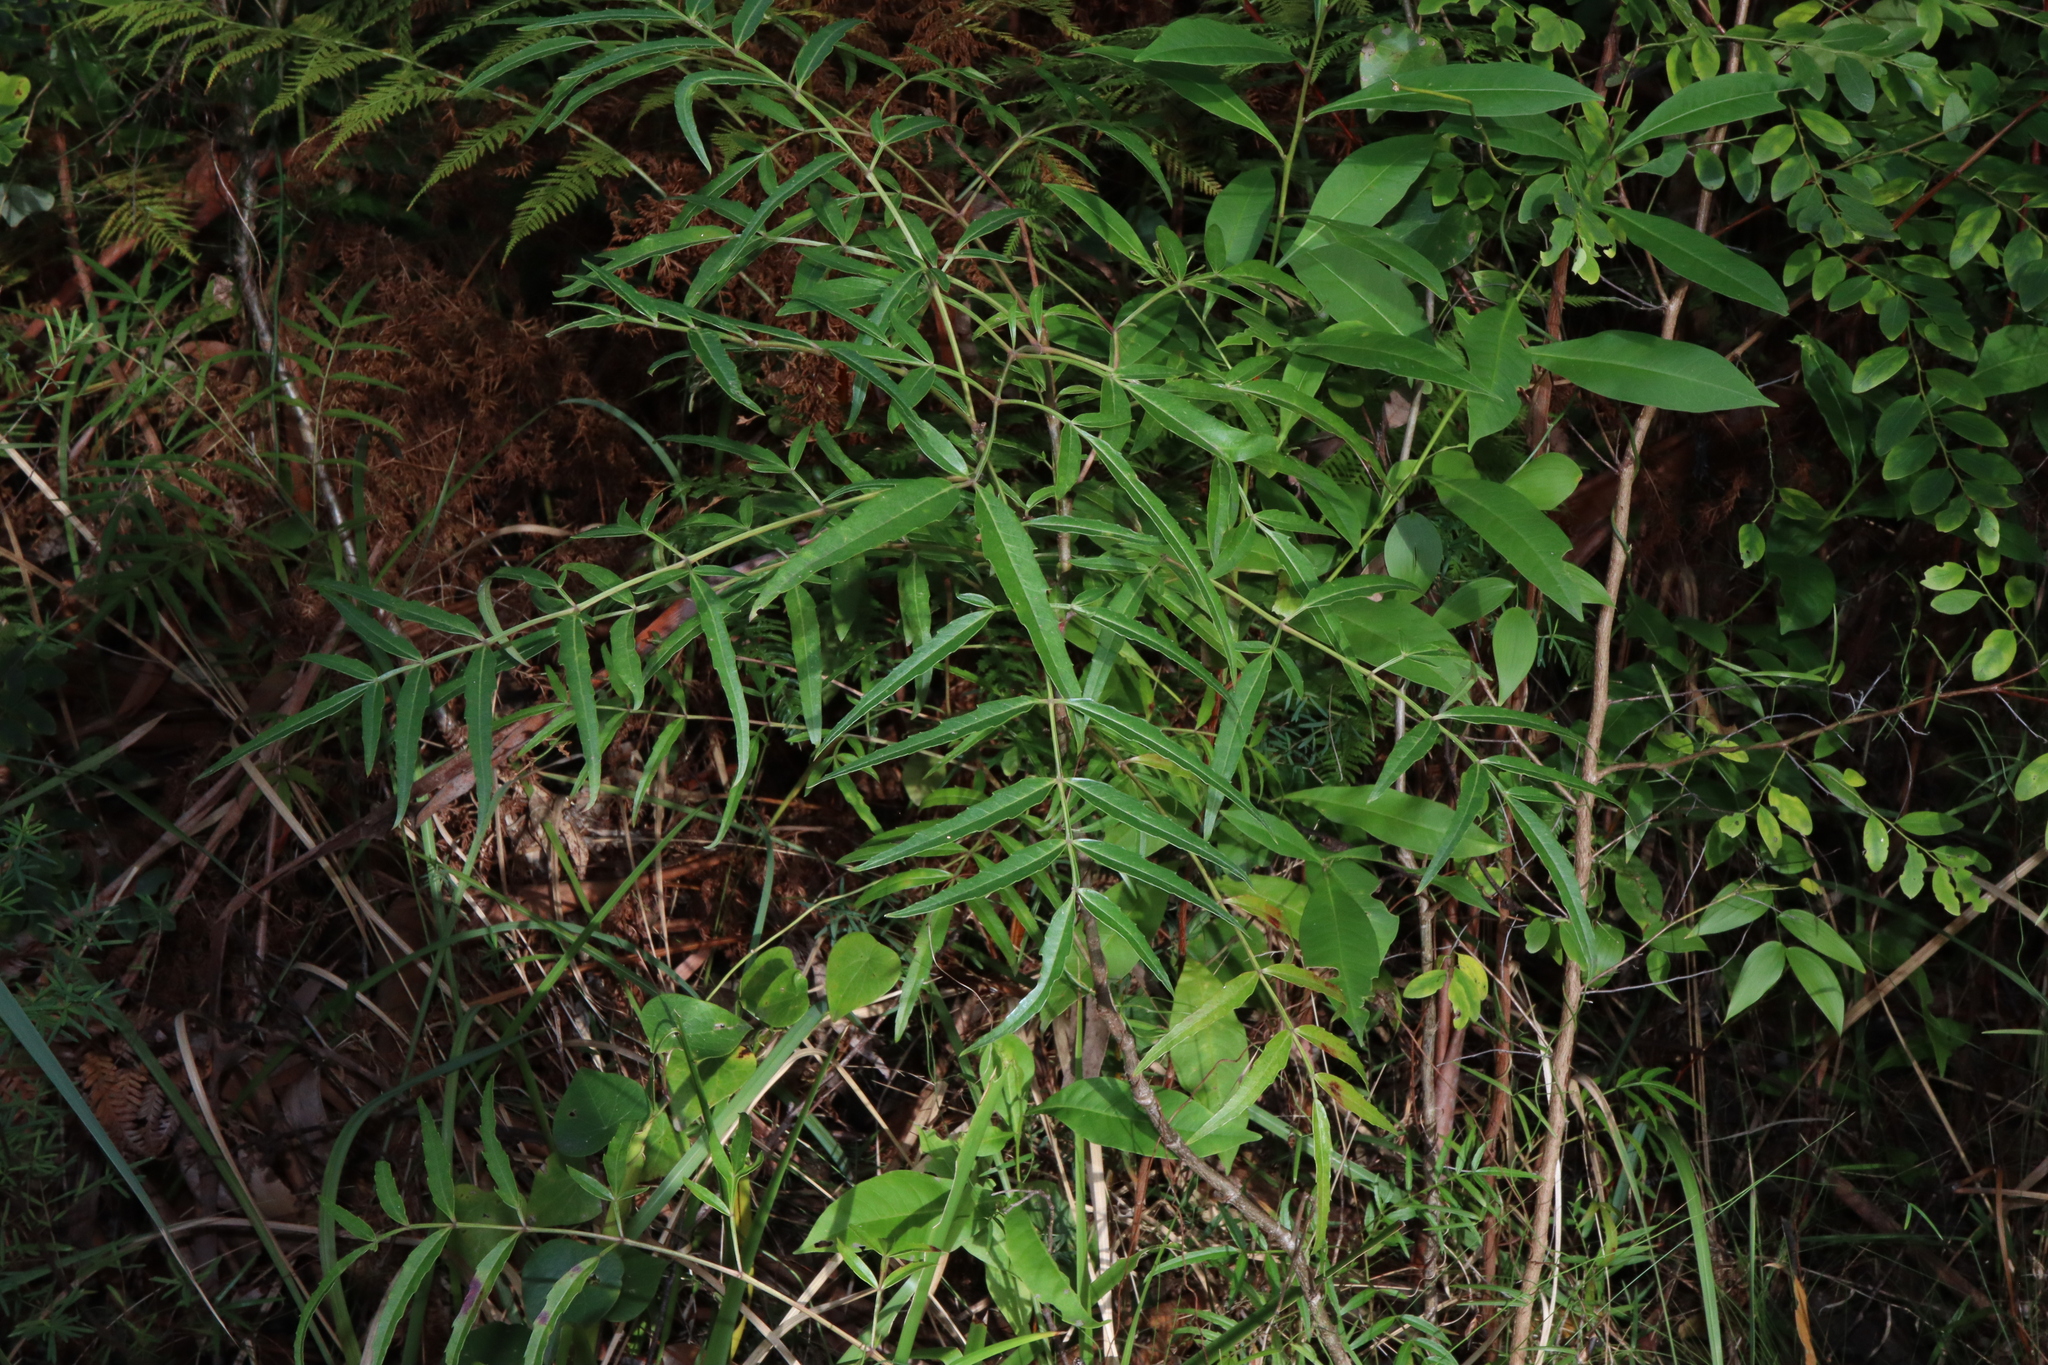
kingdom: Plantae
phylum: Tracheophyta
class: Magnoliopsida
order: Apiales
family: Araliaceae
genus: Polyscias
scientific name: Polyscias sambucifolia
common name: Elderberry-ash
